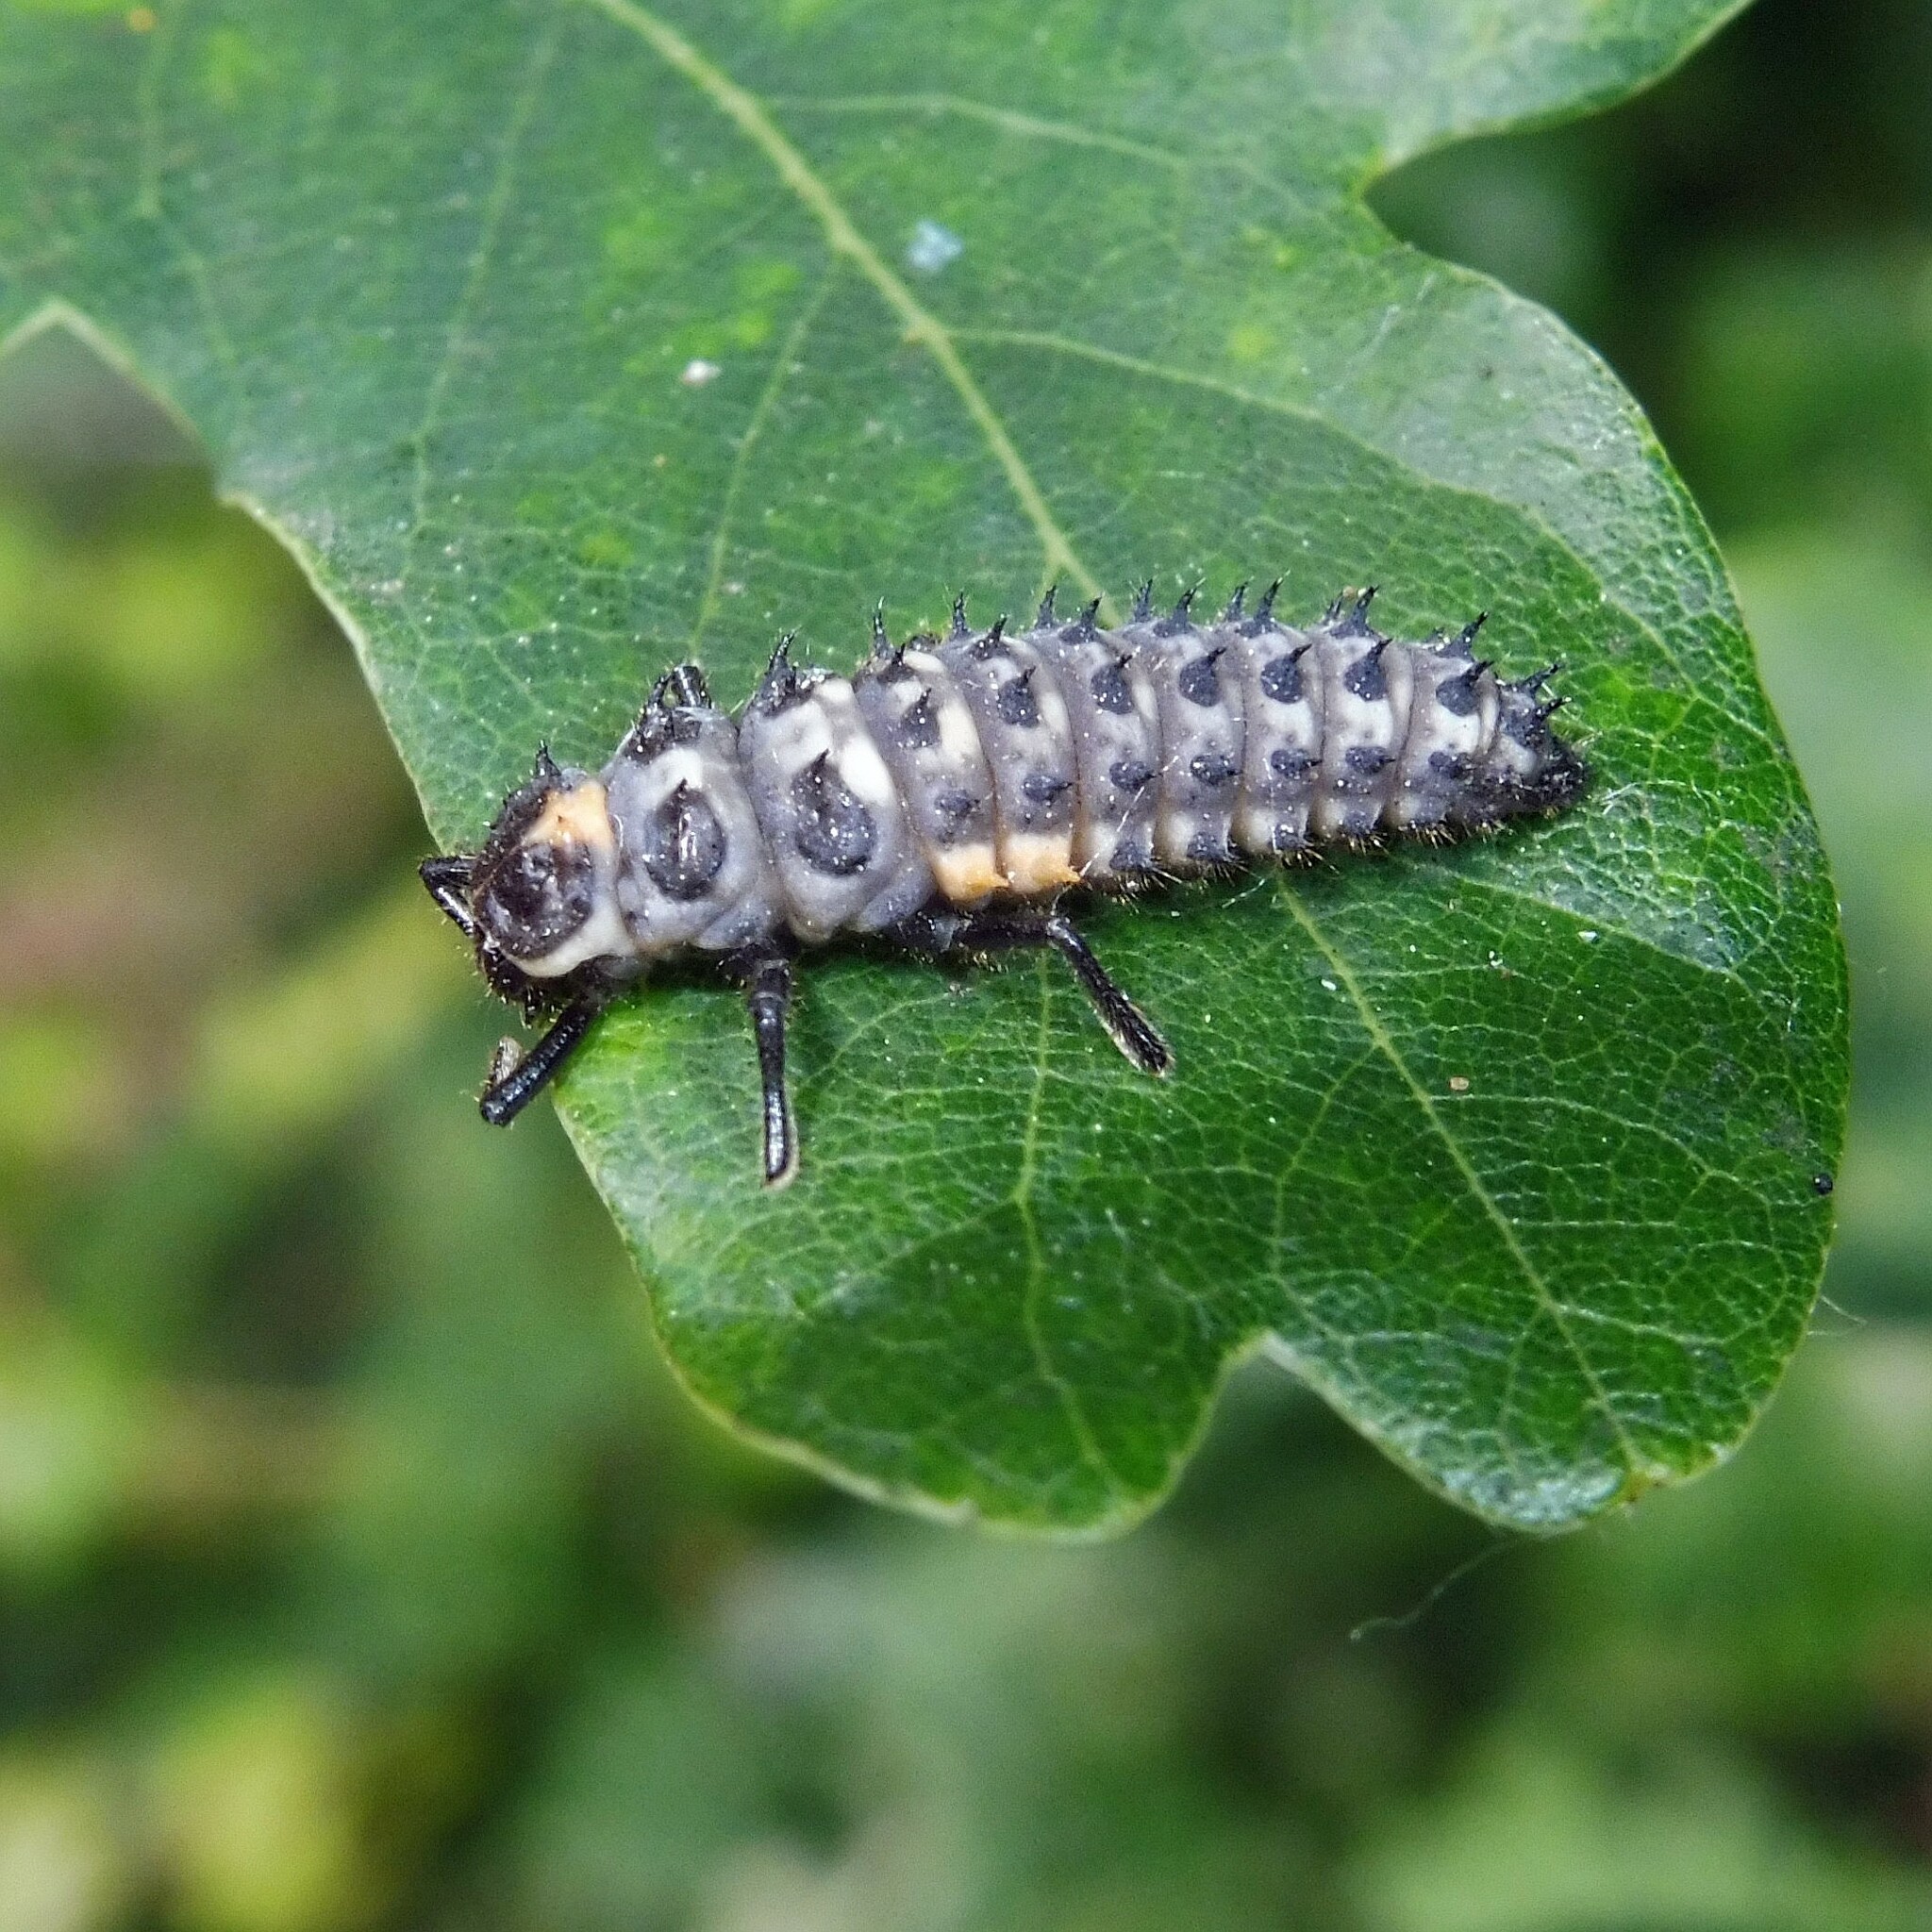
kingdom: Animalia
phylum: Arthropoda
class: Insecta
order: Coleoptera
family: Coccinellidae
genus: Anatis
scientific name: Anatis ocellata
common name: Eyed ladybird
